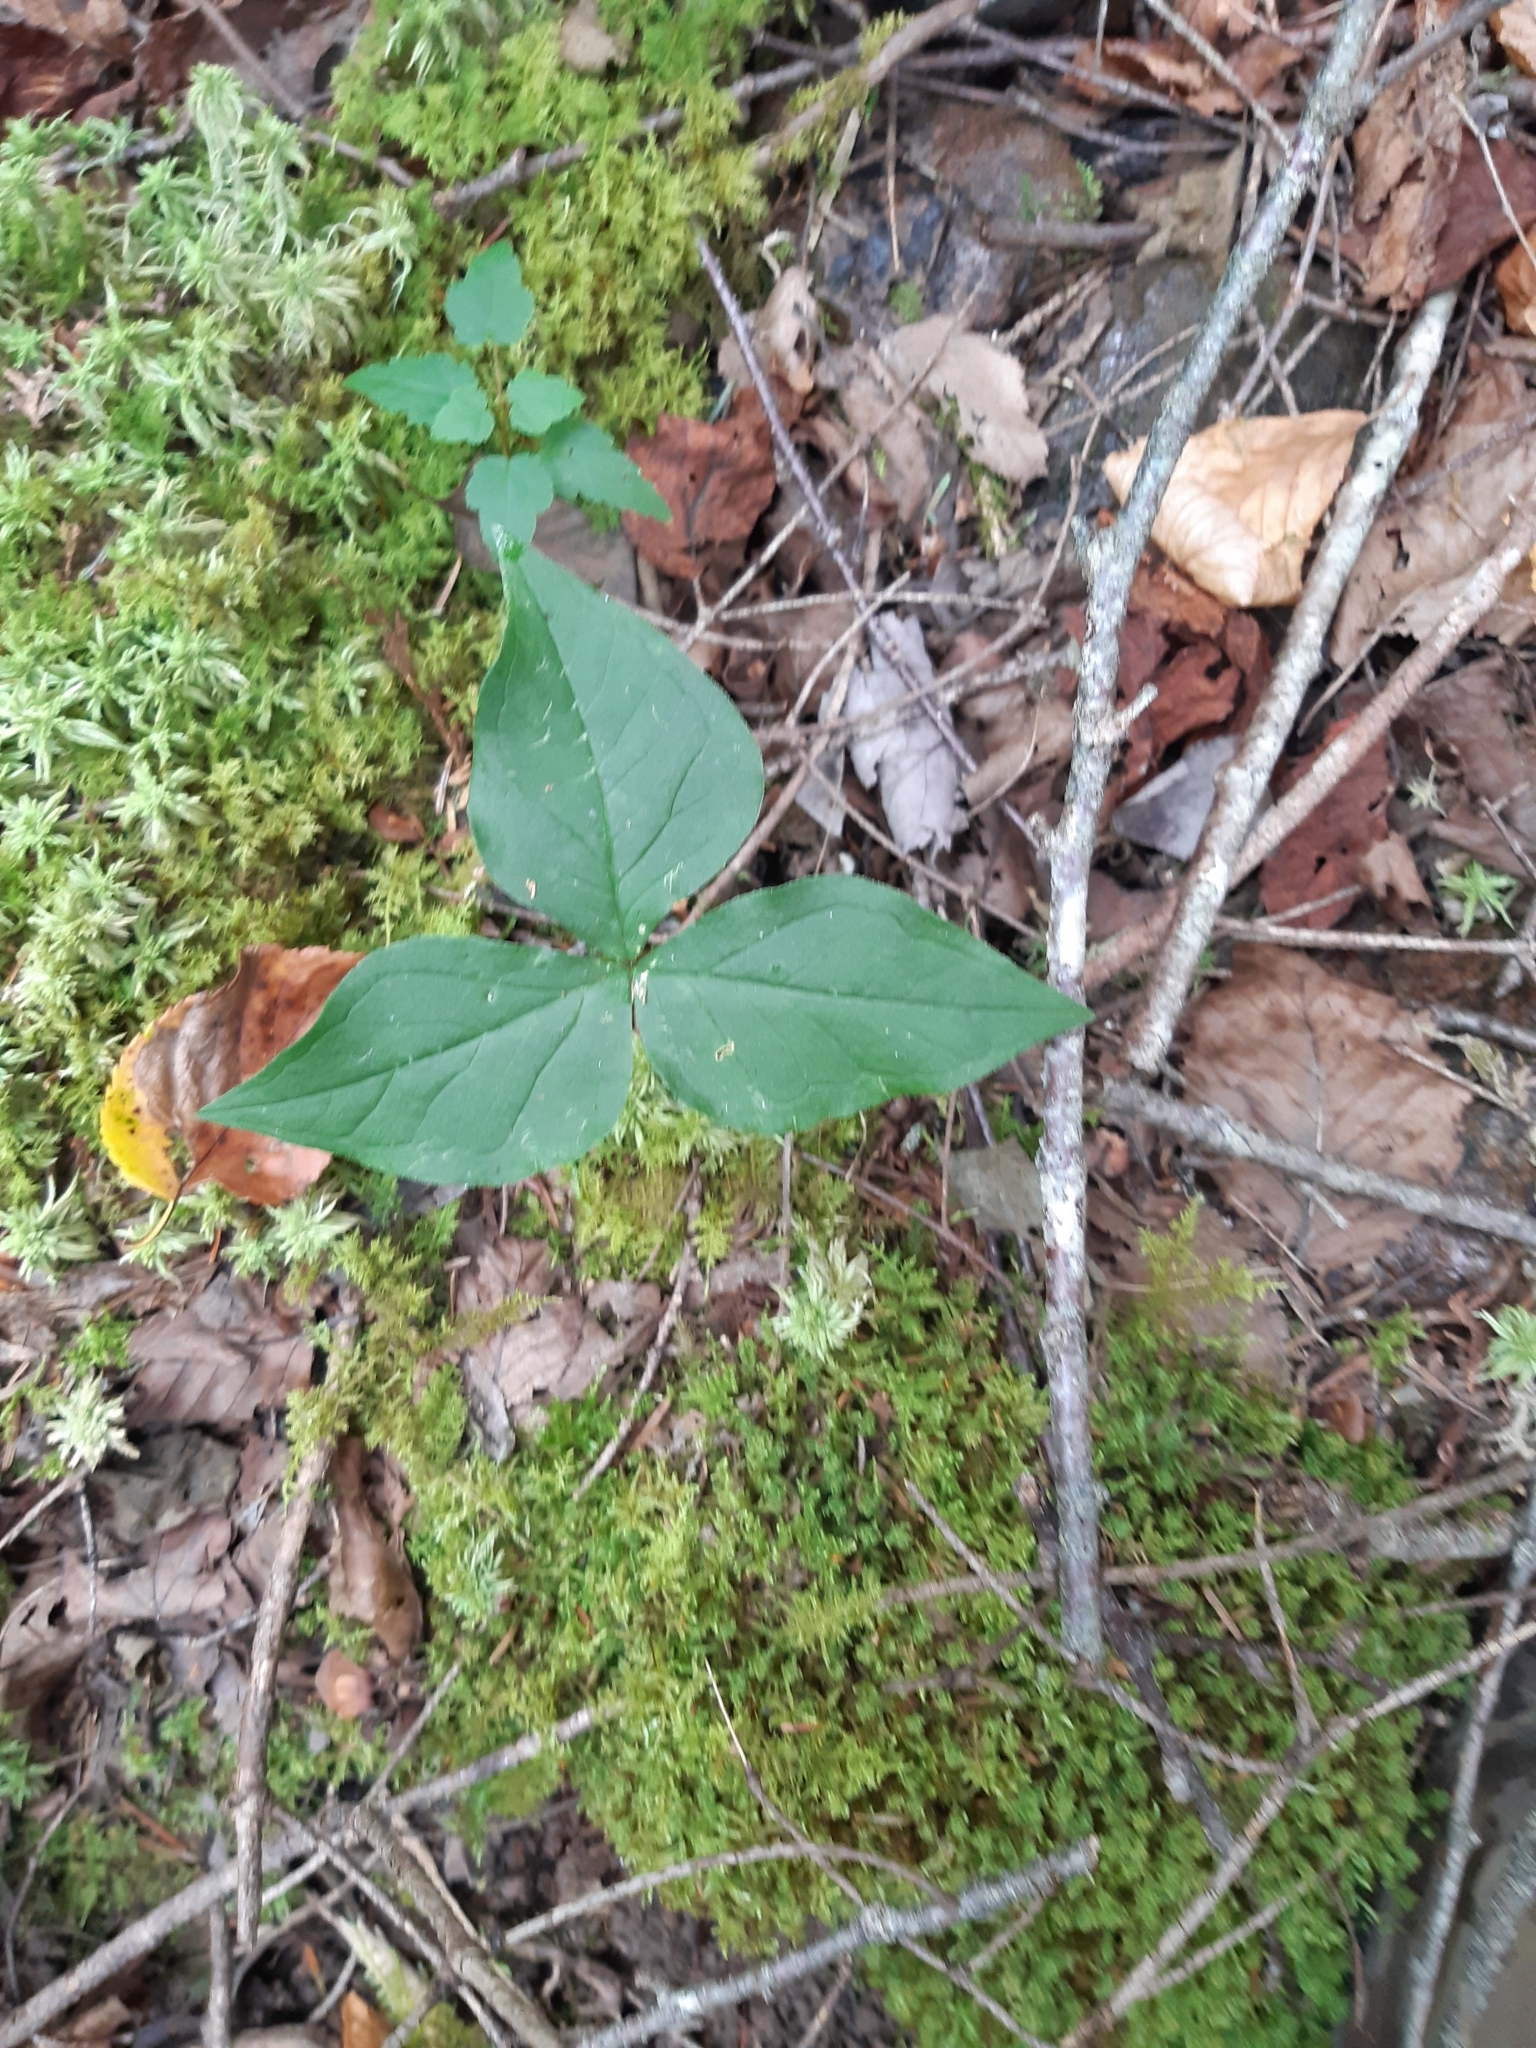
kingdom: Plantae
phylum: Tracheophyta
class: Liliopsida
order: Alismatales
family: Araceae
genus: Arisaema
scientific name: Arisaema triphyllum
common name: Jack-in-the-pulpit
